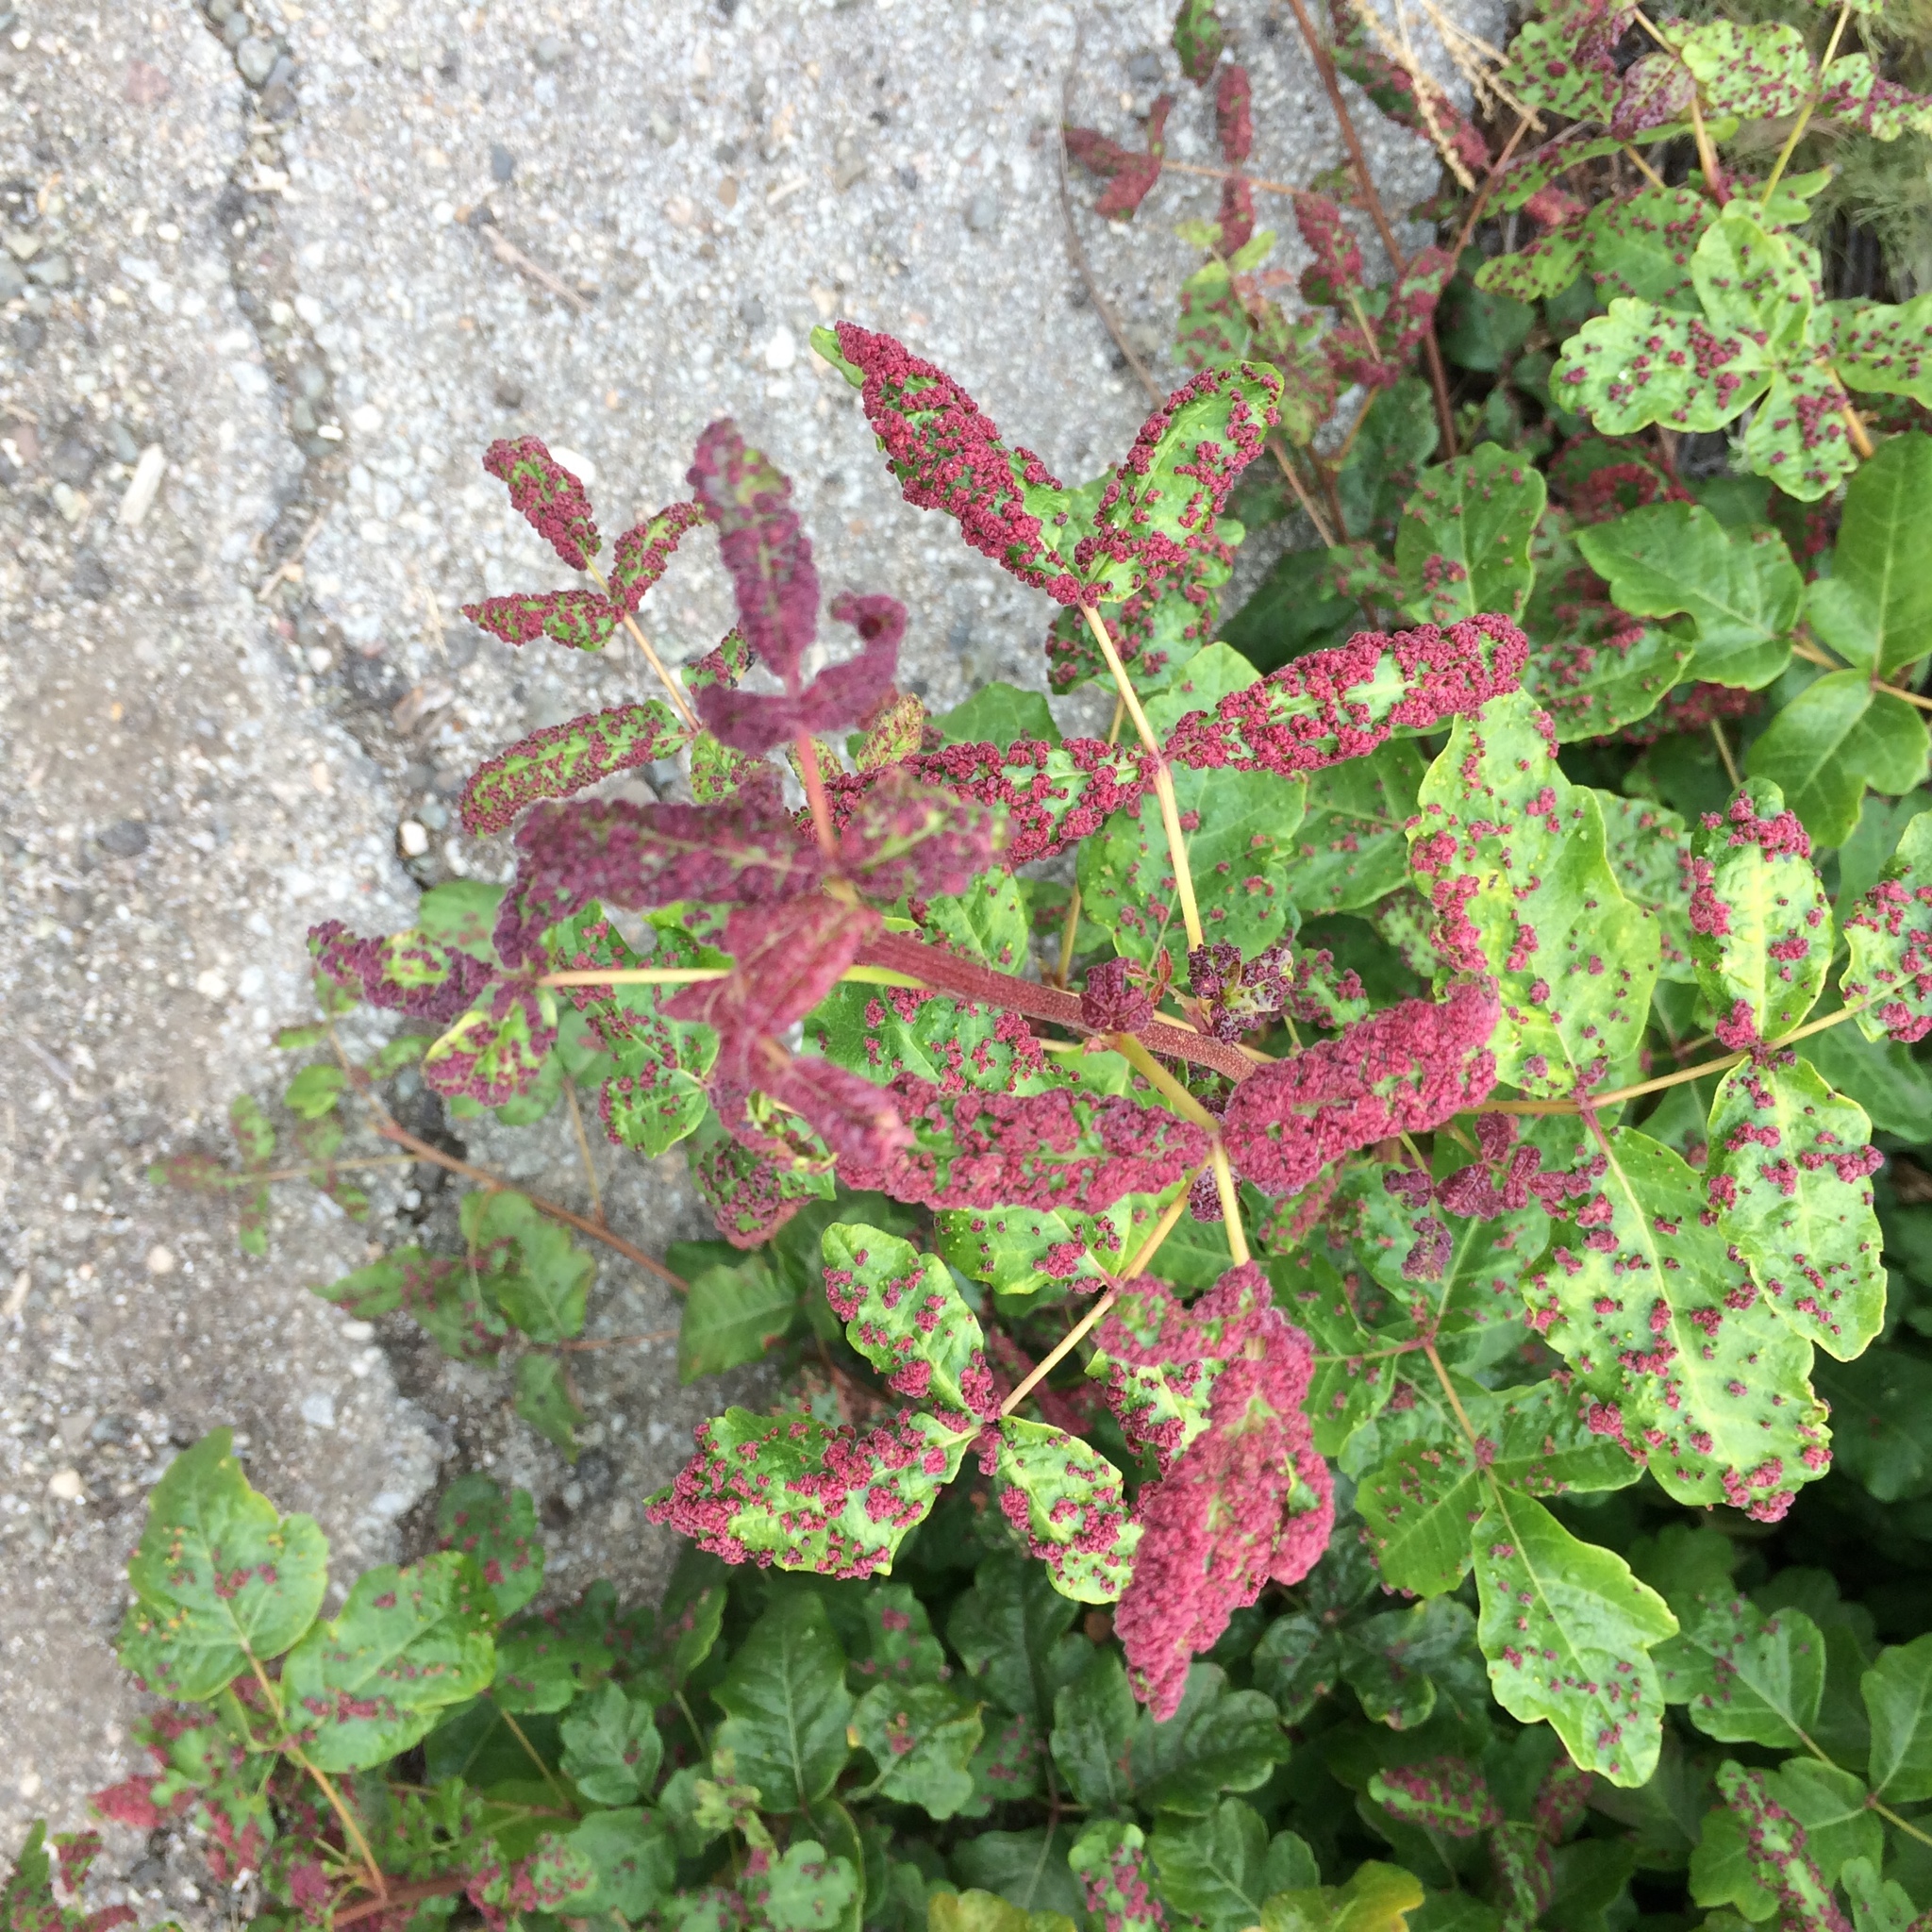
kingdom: Plantae
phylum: Tracheophyta
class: Magnoliopsida
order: Sapindales
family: Anacardiaceae
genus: Toxicodendron
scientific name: Toxicodendron diversilobum
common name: Pacific poison-oak
